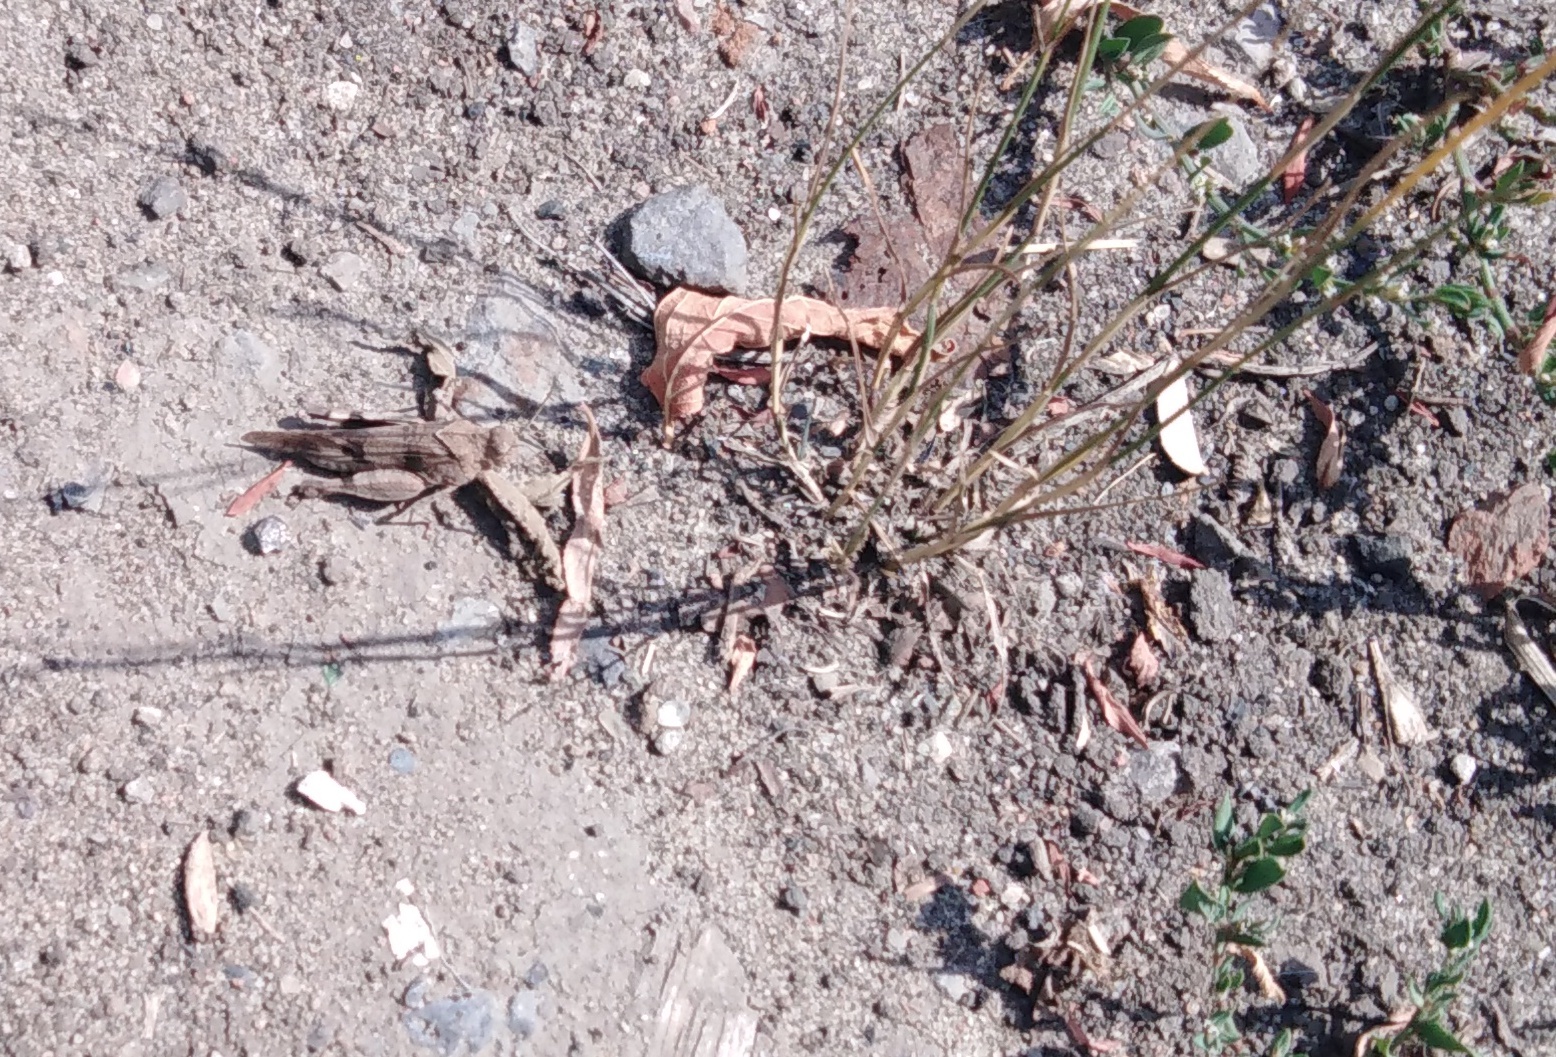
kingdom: Animalia
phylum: Arthropoda
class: Insecta
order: Orthoptera
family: Acrididae
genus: Oedipoda
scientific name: Oedipoda caerulescens
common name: Blue-winged grasshopper
